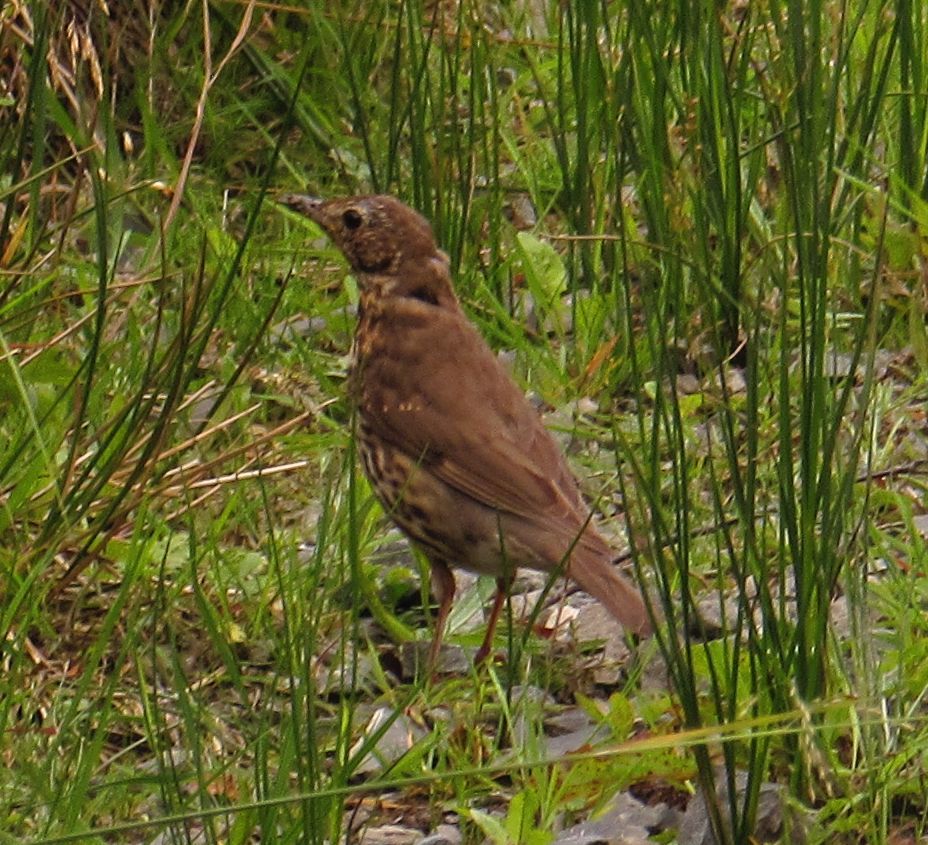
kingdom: Animalia
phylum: Chordata
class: Aves
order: Passeriformes
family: Turdidae
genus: Turdus
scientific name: Turdus philomelos
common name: Song thrush
